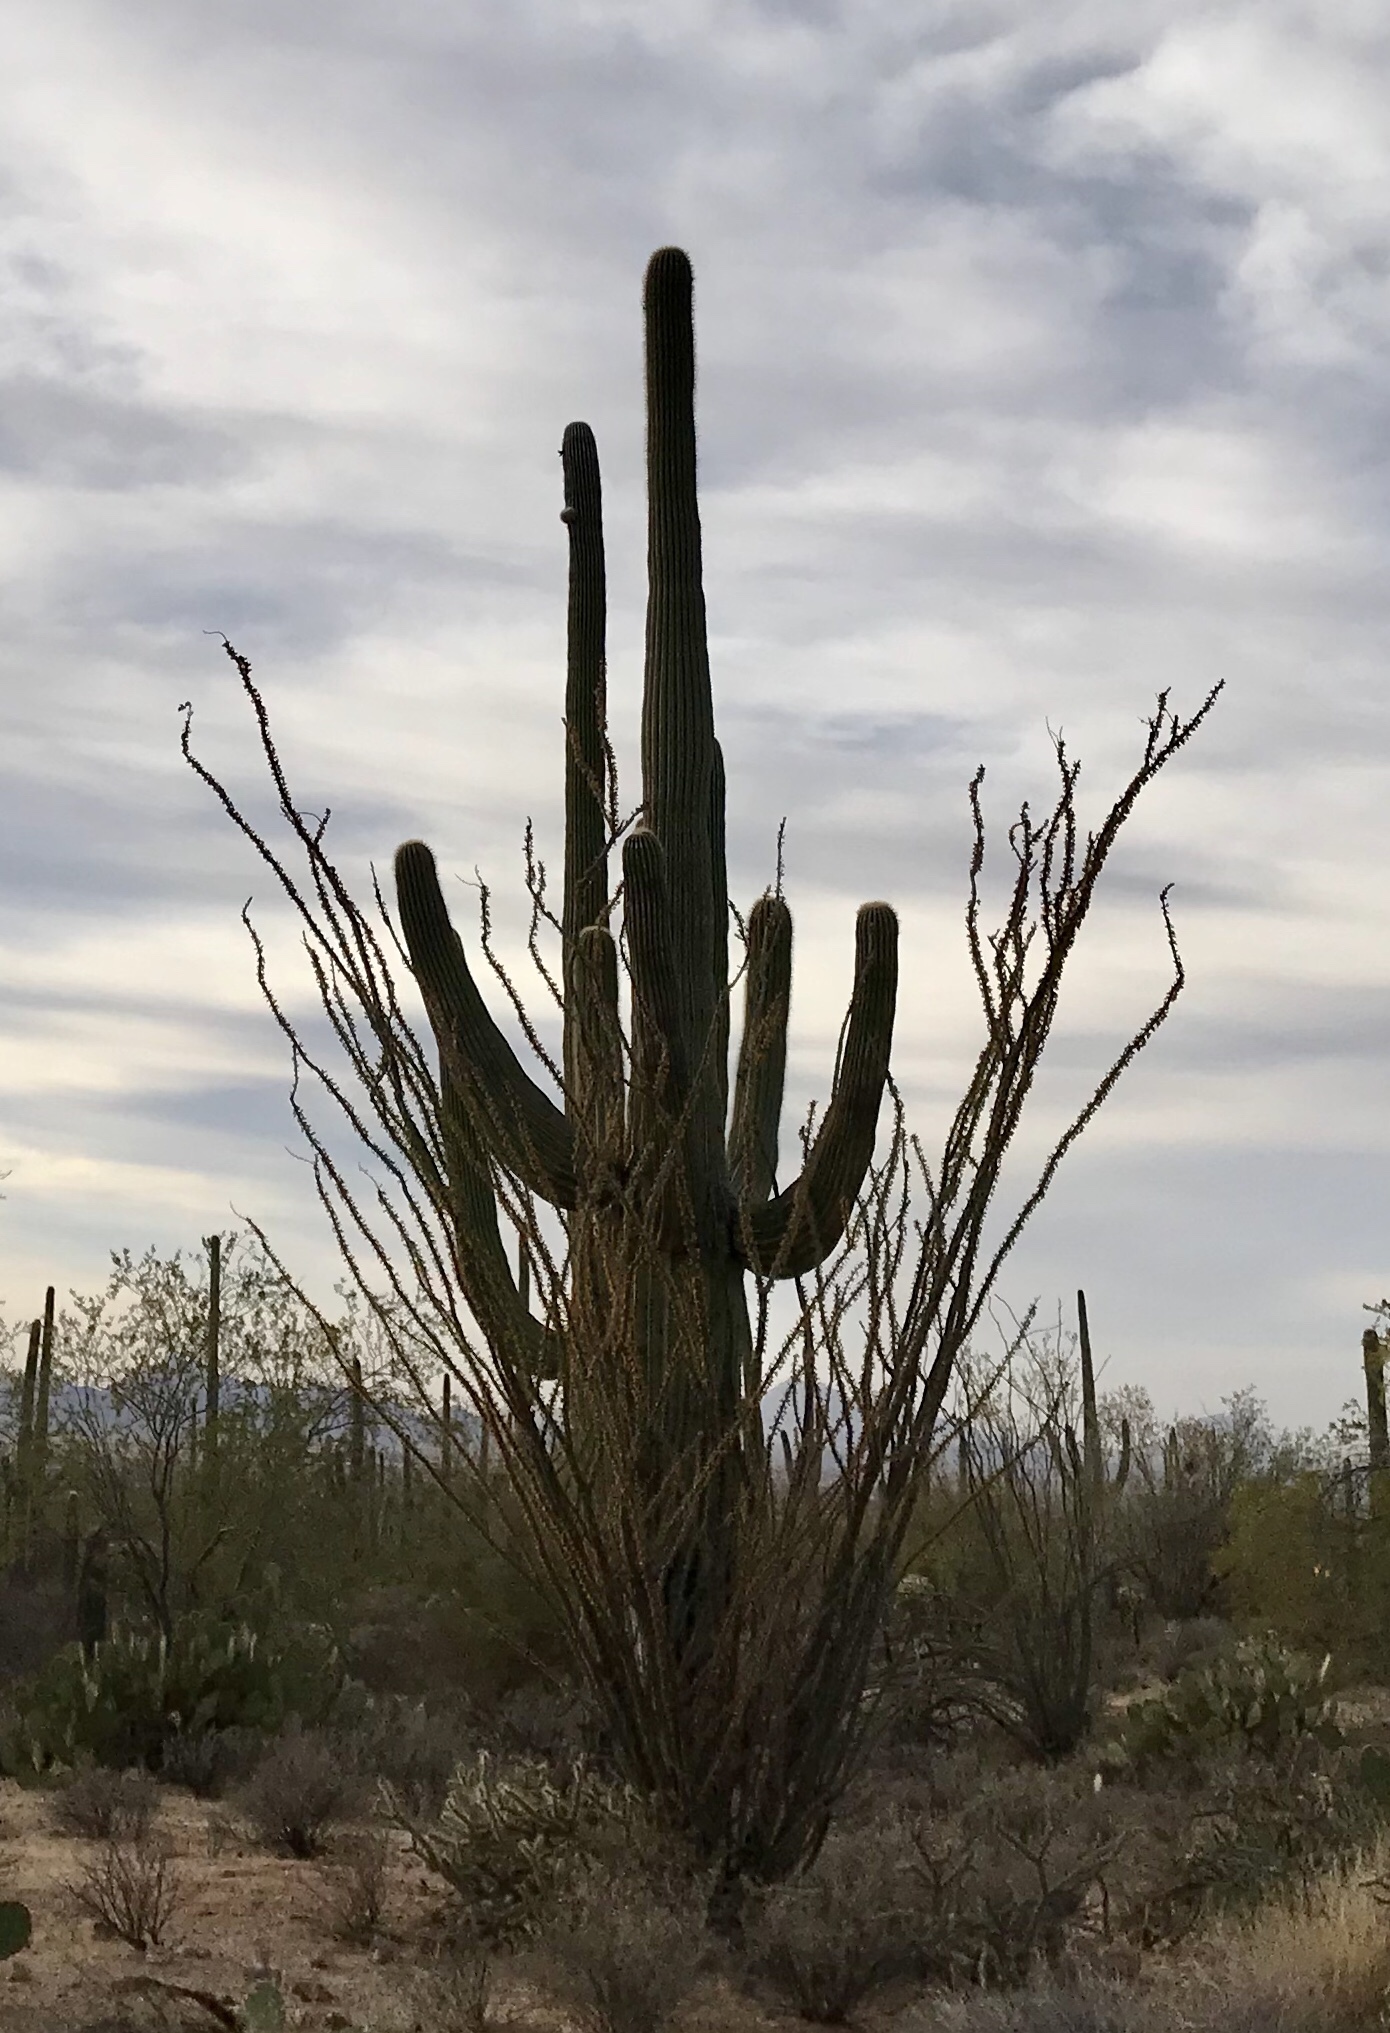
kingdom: Plantae
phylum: Tracheophyta
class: Magnoliopsida
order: Caryophyllales
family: Cactaceae
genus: Carnegiea
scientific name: Carnegiea gigantea
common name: Saguaro
